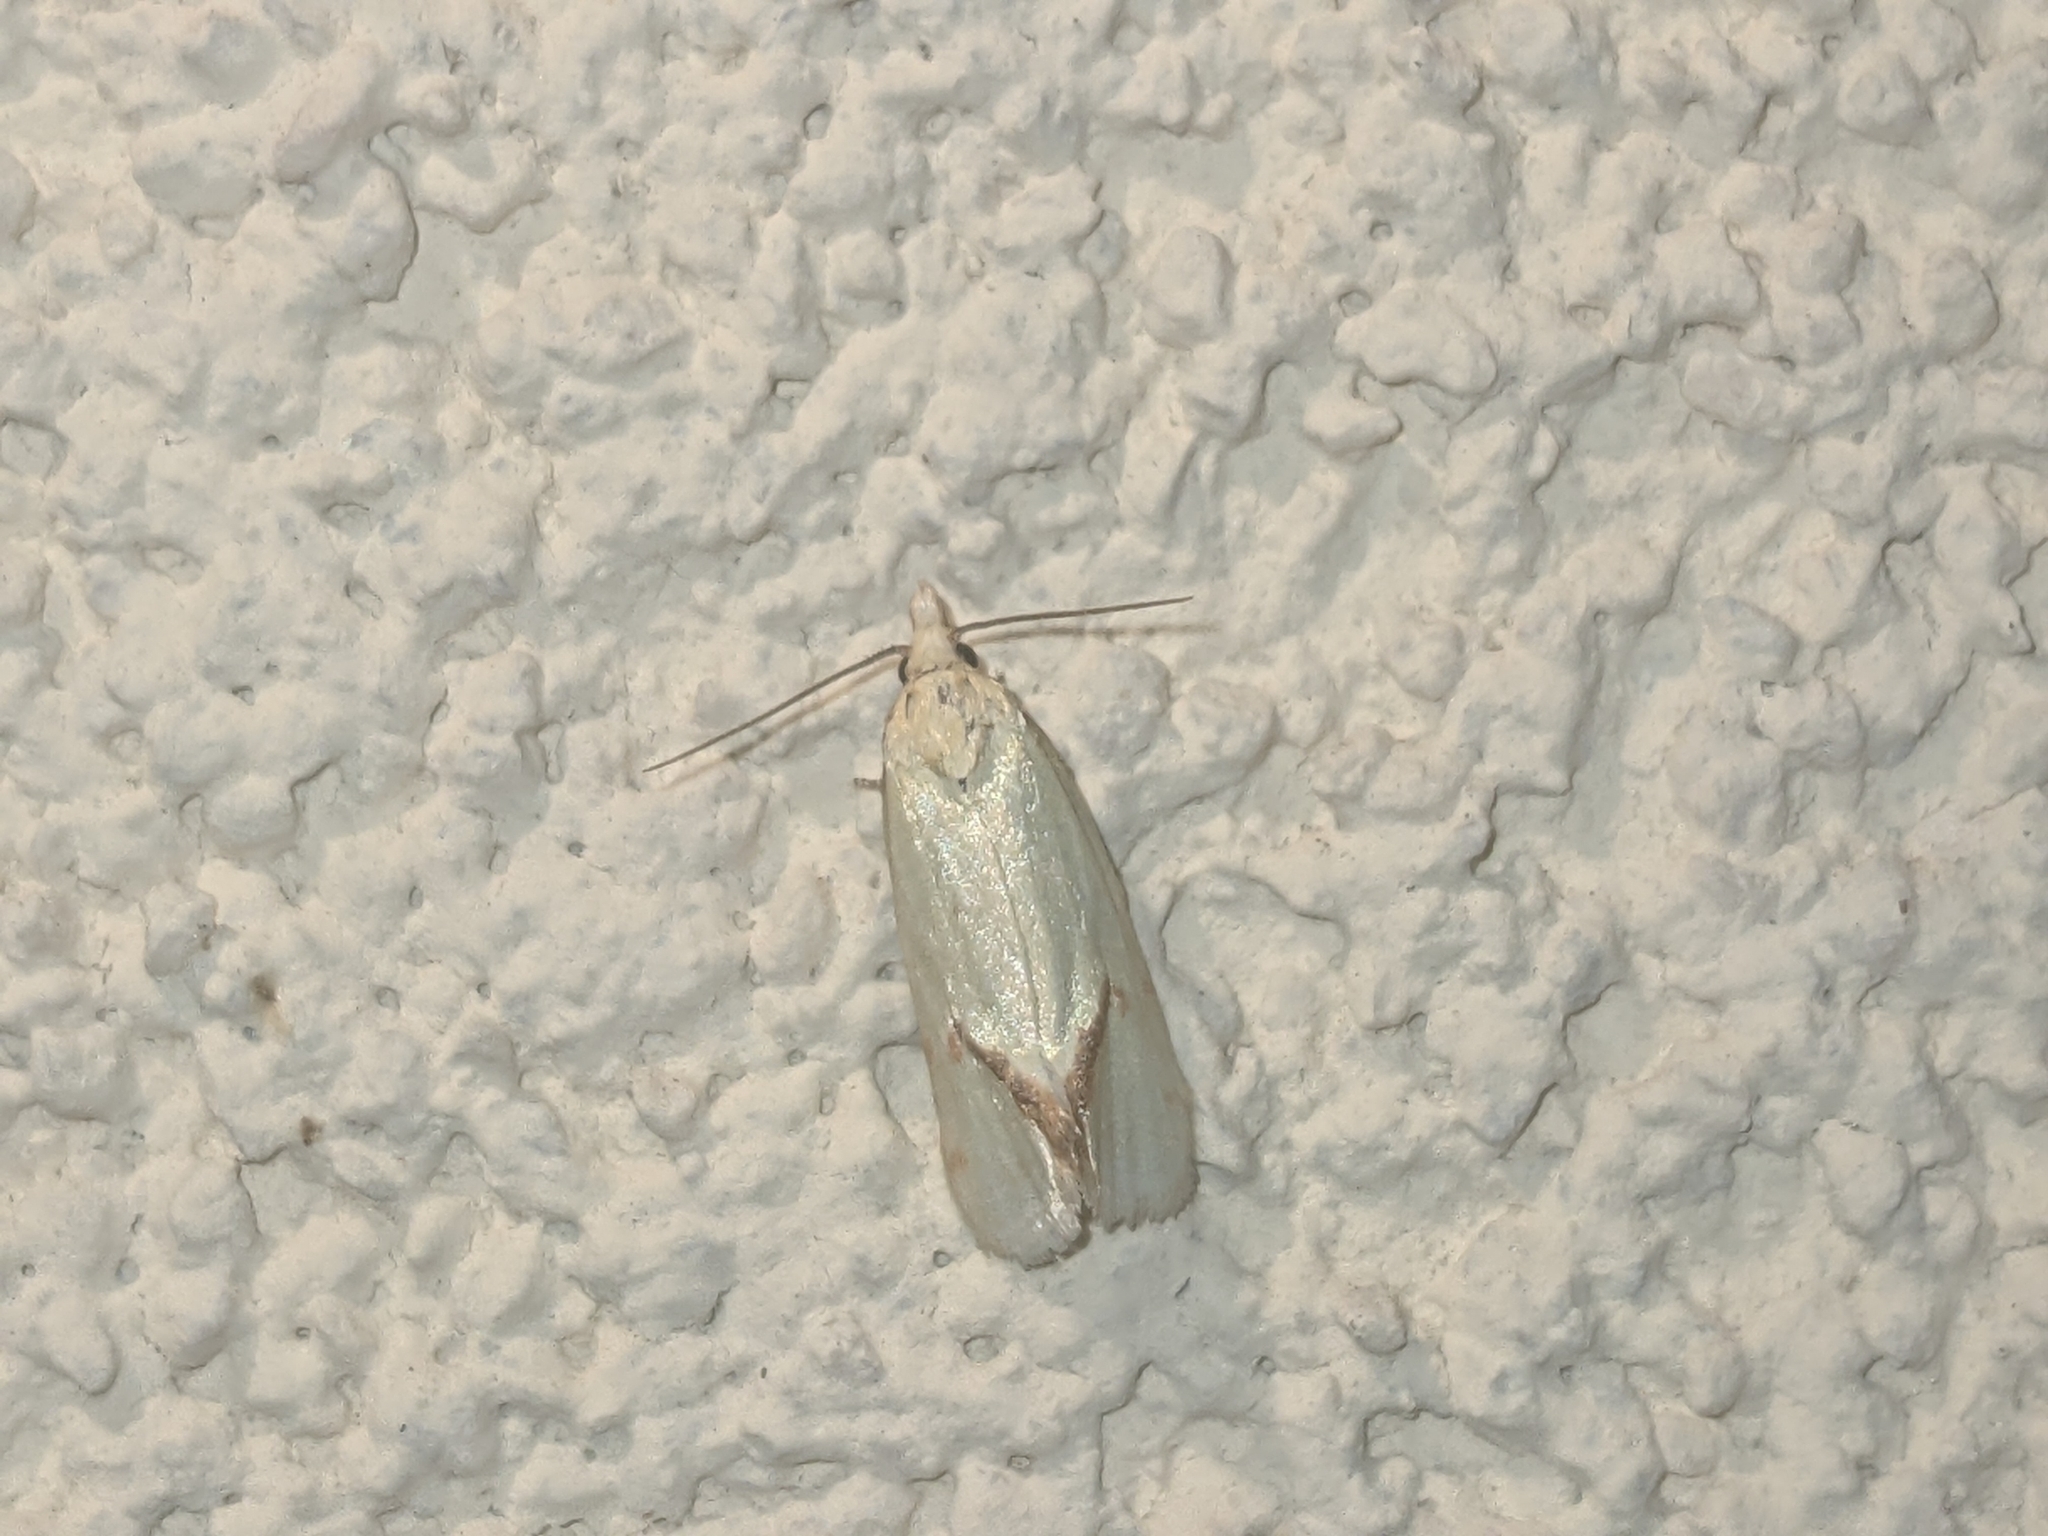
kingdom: Animalia
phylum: Arthropoda
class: Insecta
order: Lepidoptera
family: Tortricidae
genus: Agapeta
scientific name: Agapeta hamana
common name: Common yellow conch
